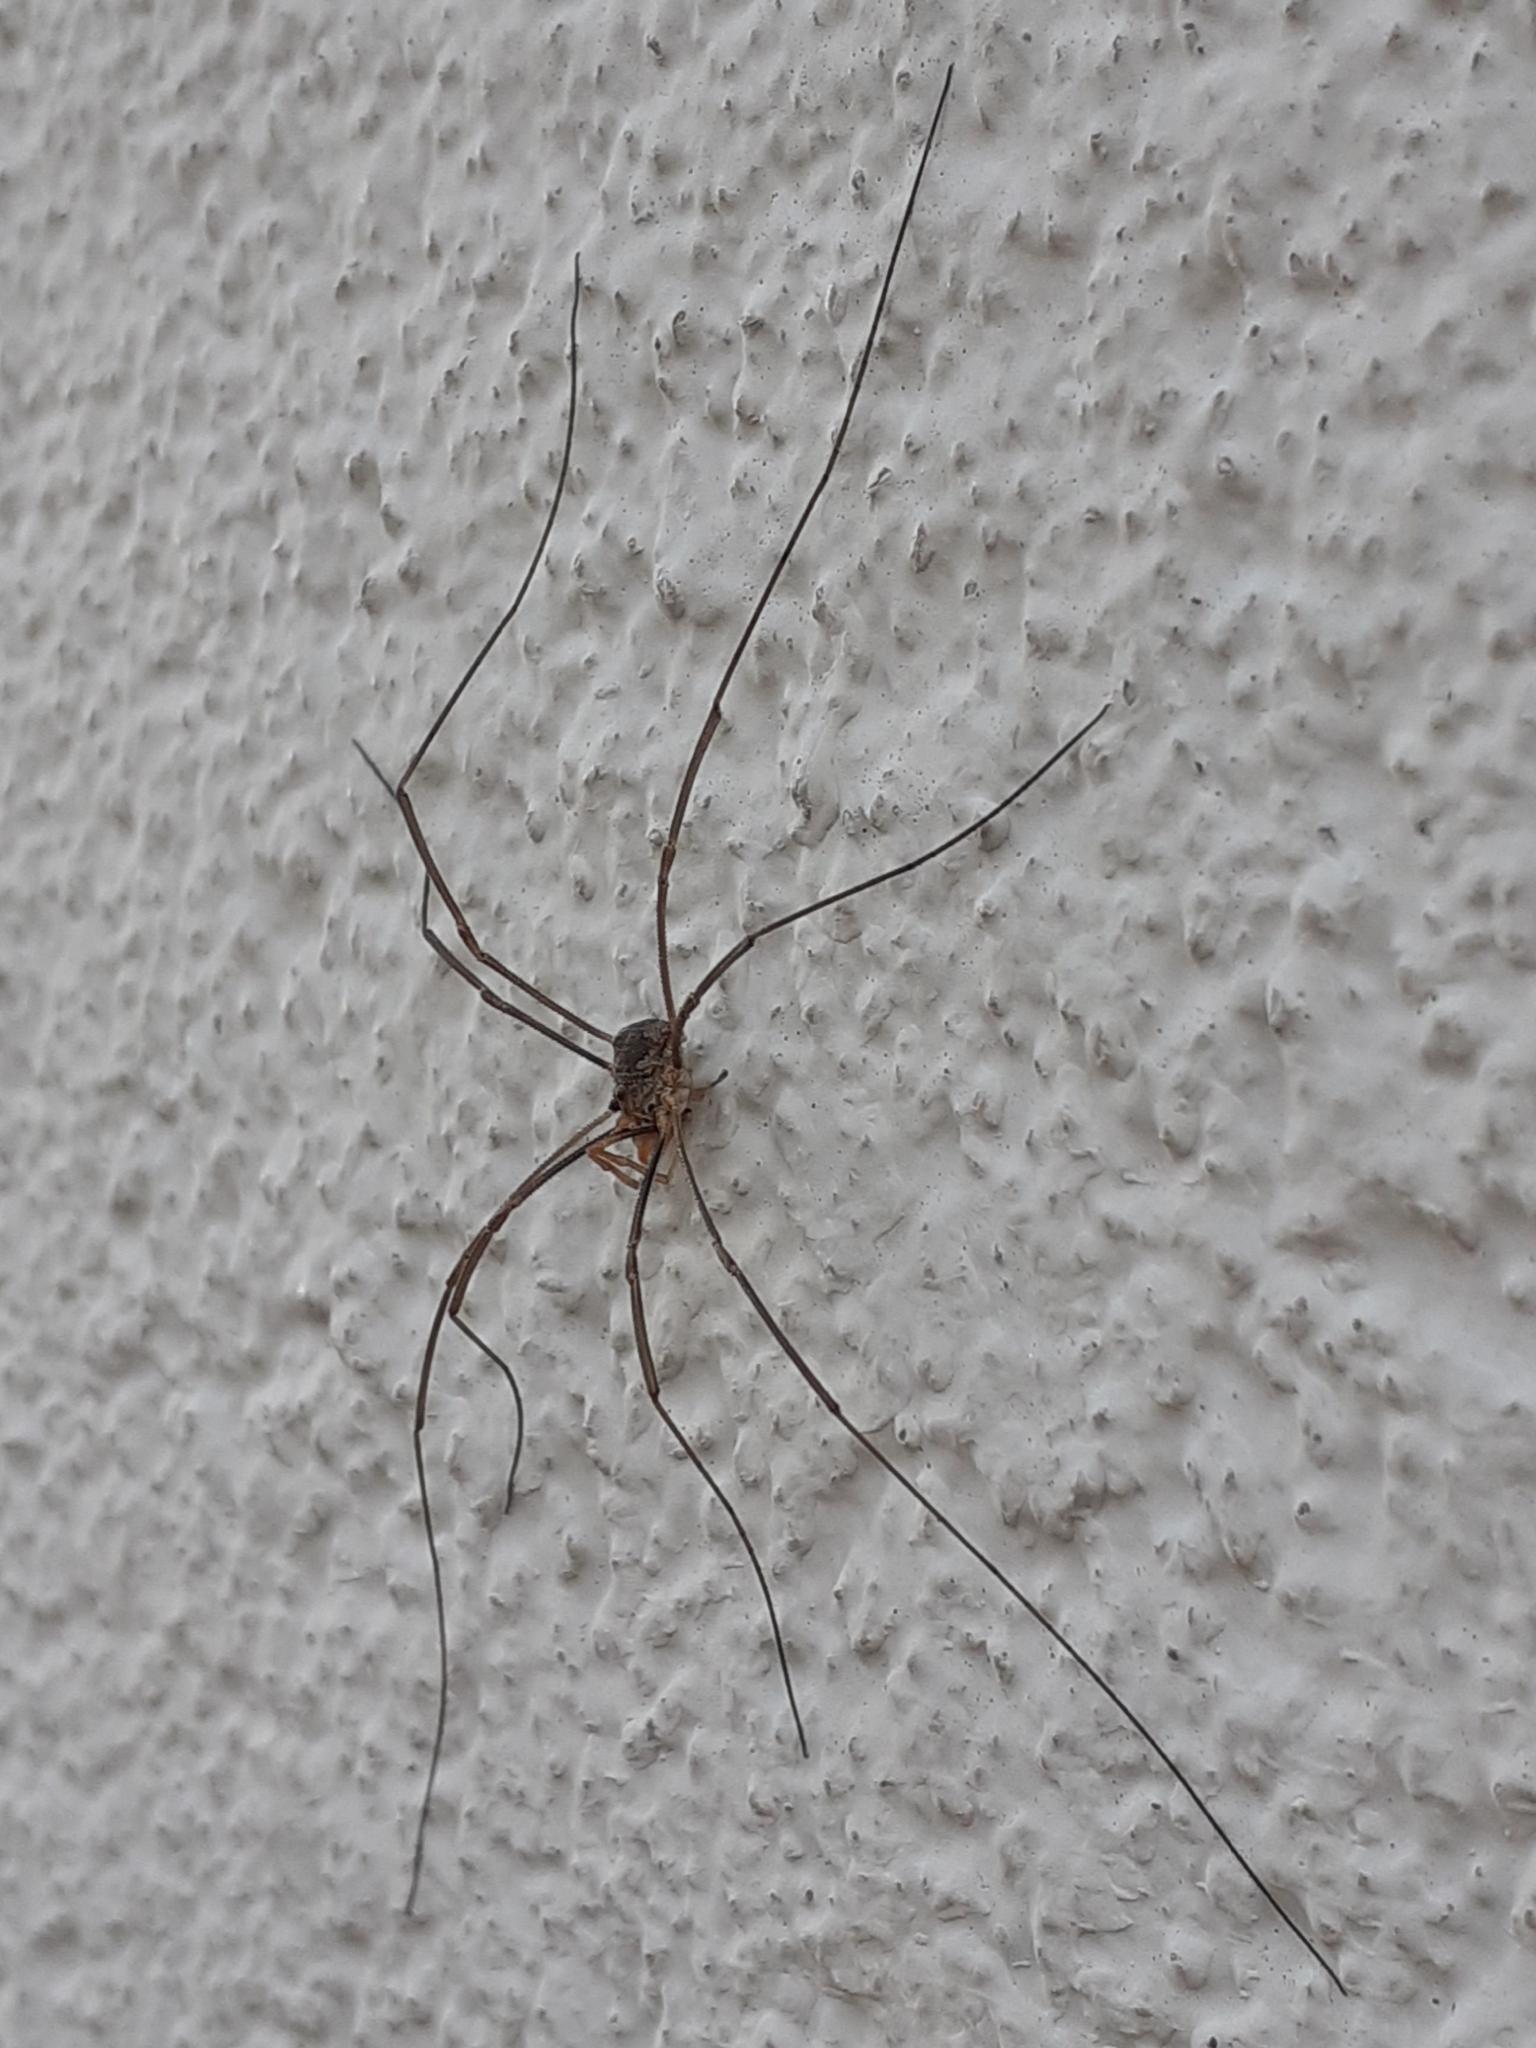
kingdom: Animalia
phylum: Arthropoda
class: Arachnida
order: Opiliones
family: Phalangiidae
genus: Phalangium
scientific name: Phalangium opilio
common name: Daddy longleg
